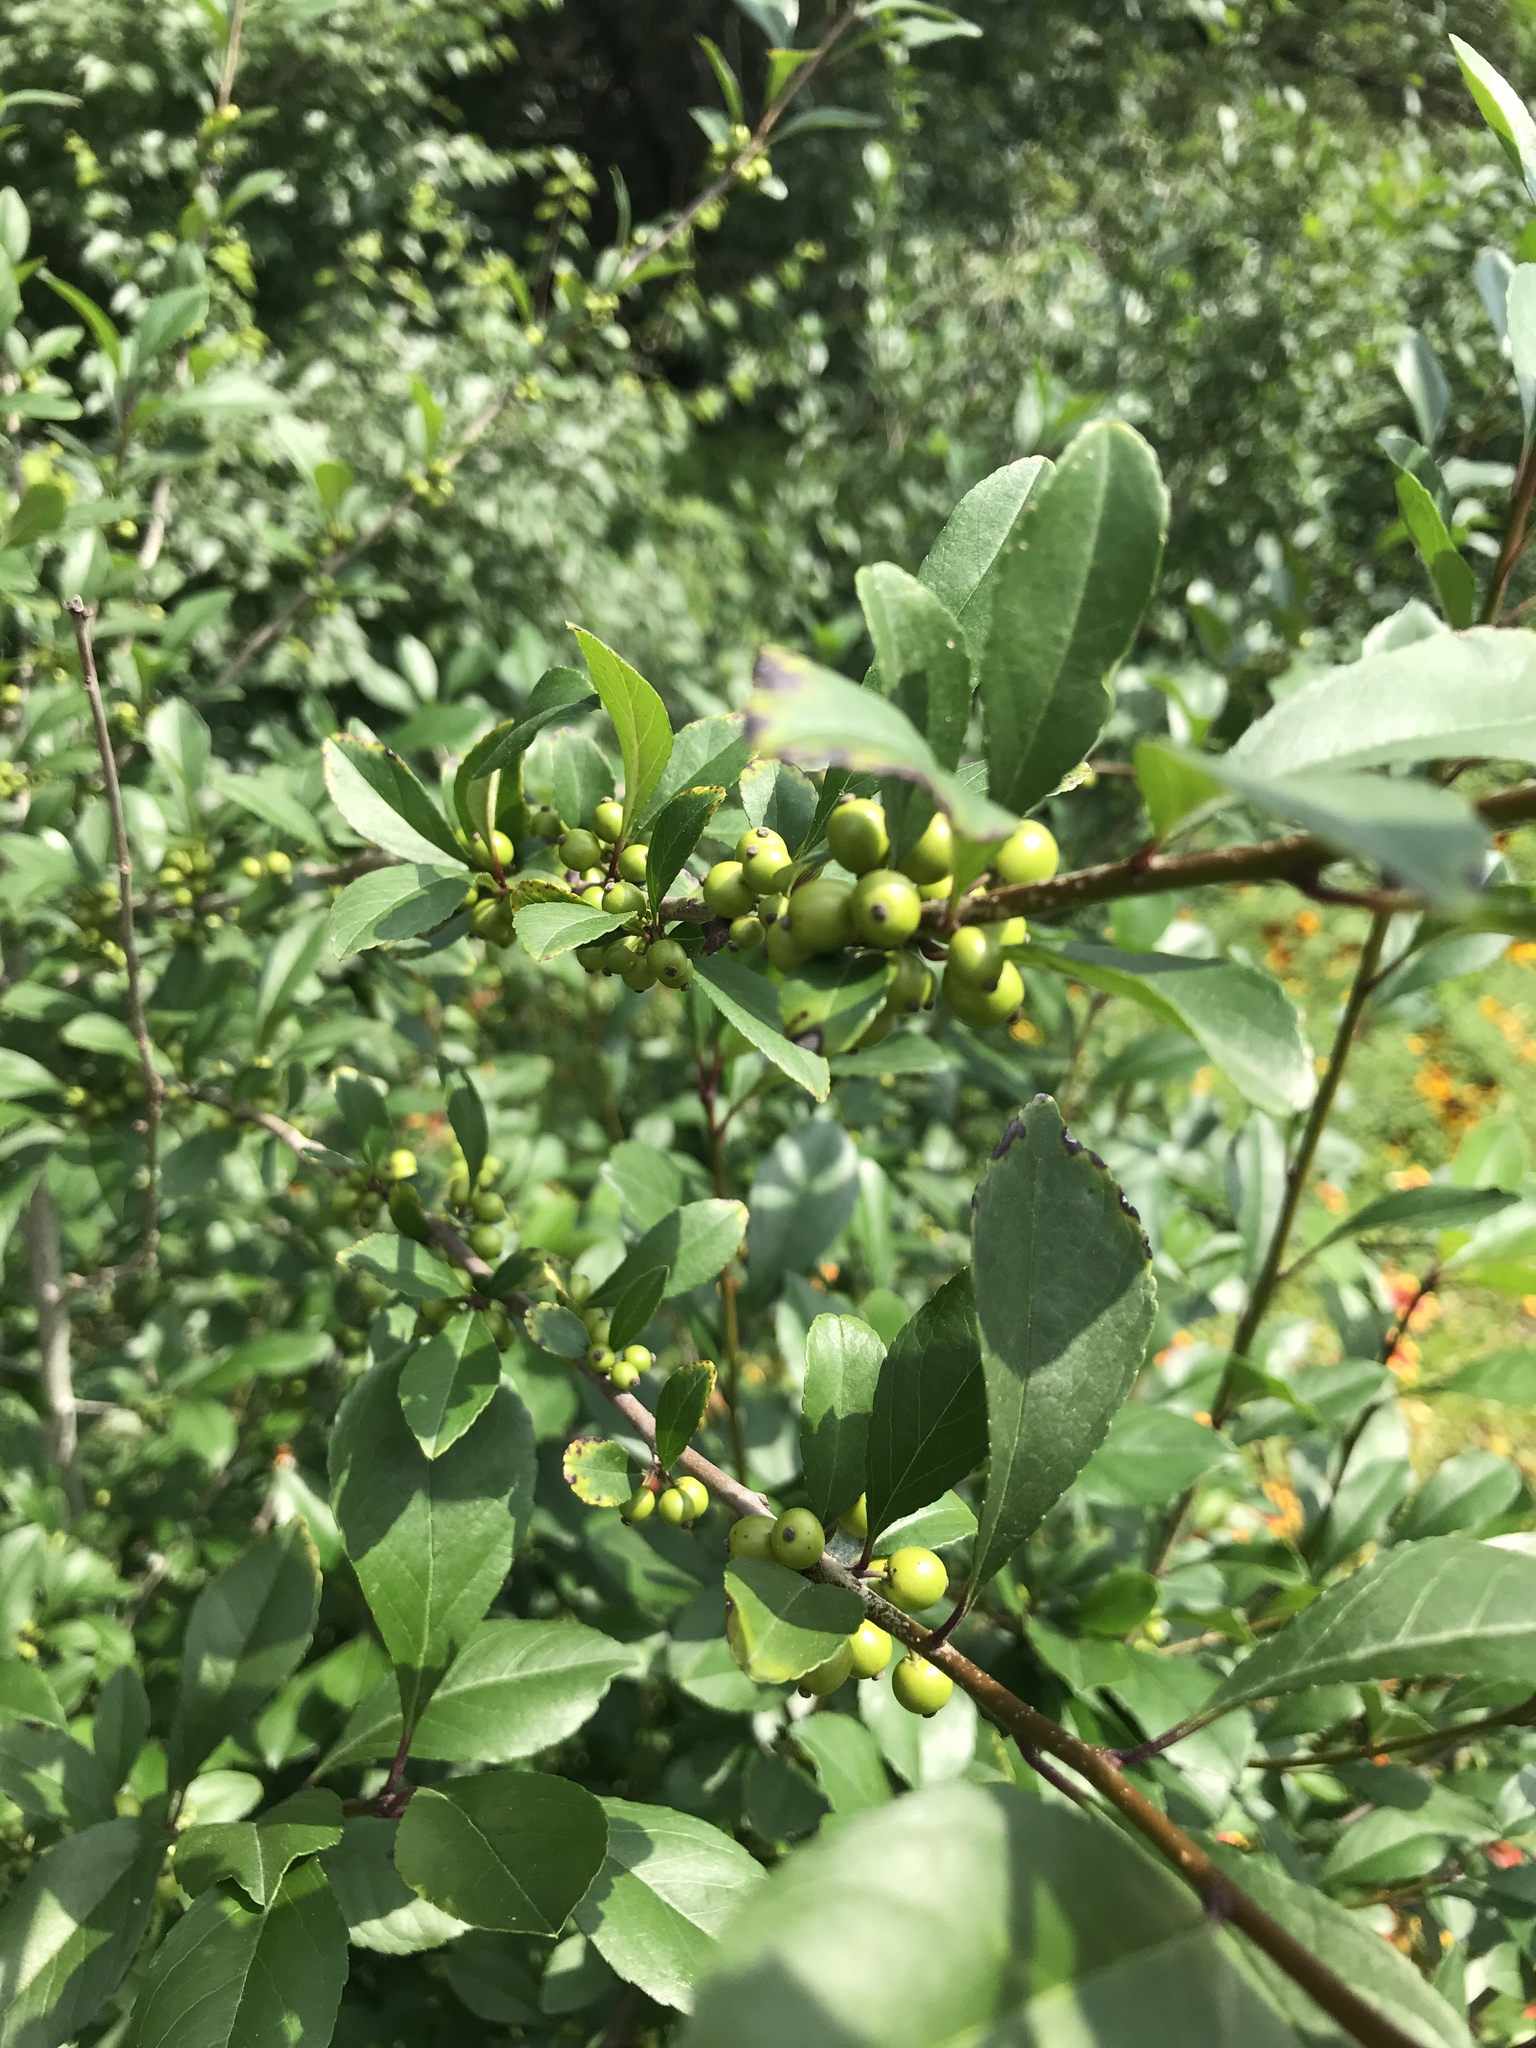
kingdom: Plantae
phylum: Tracheophyta
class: Magnoliopsida
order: Aquifoliales
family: Aquifoliaceae
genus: Ilex
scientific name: Ilex decidua
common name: Possum-haw
